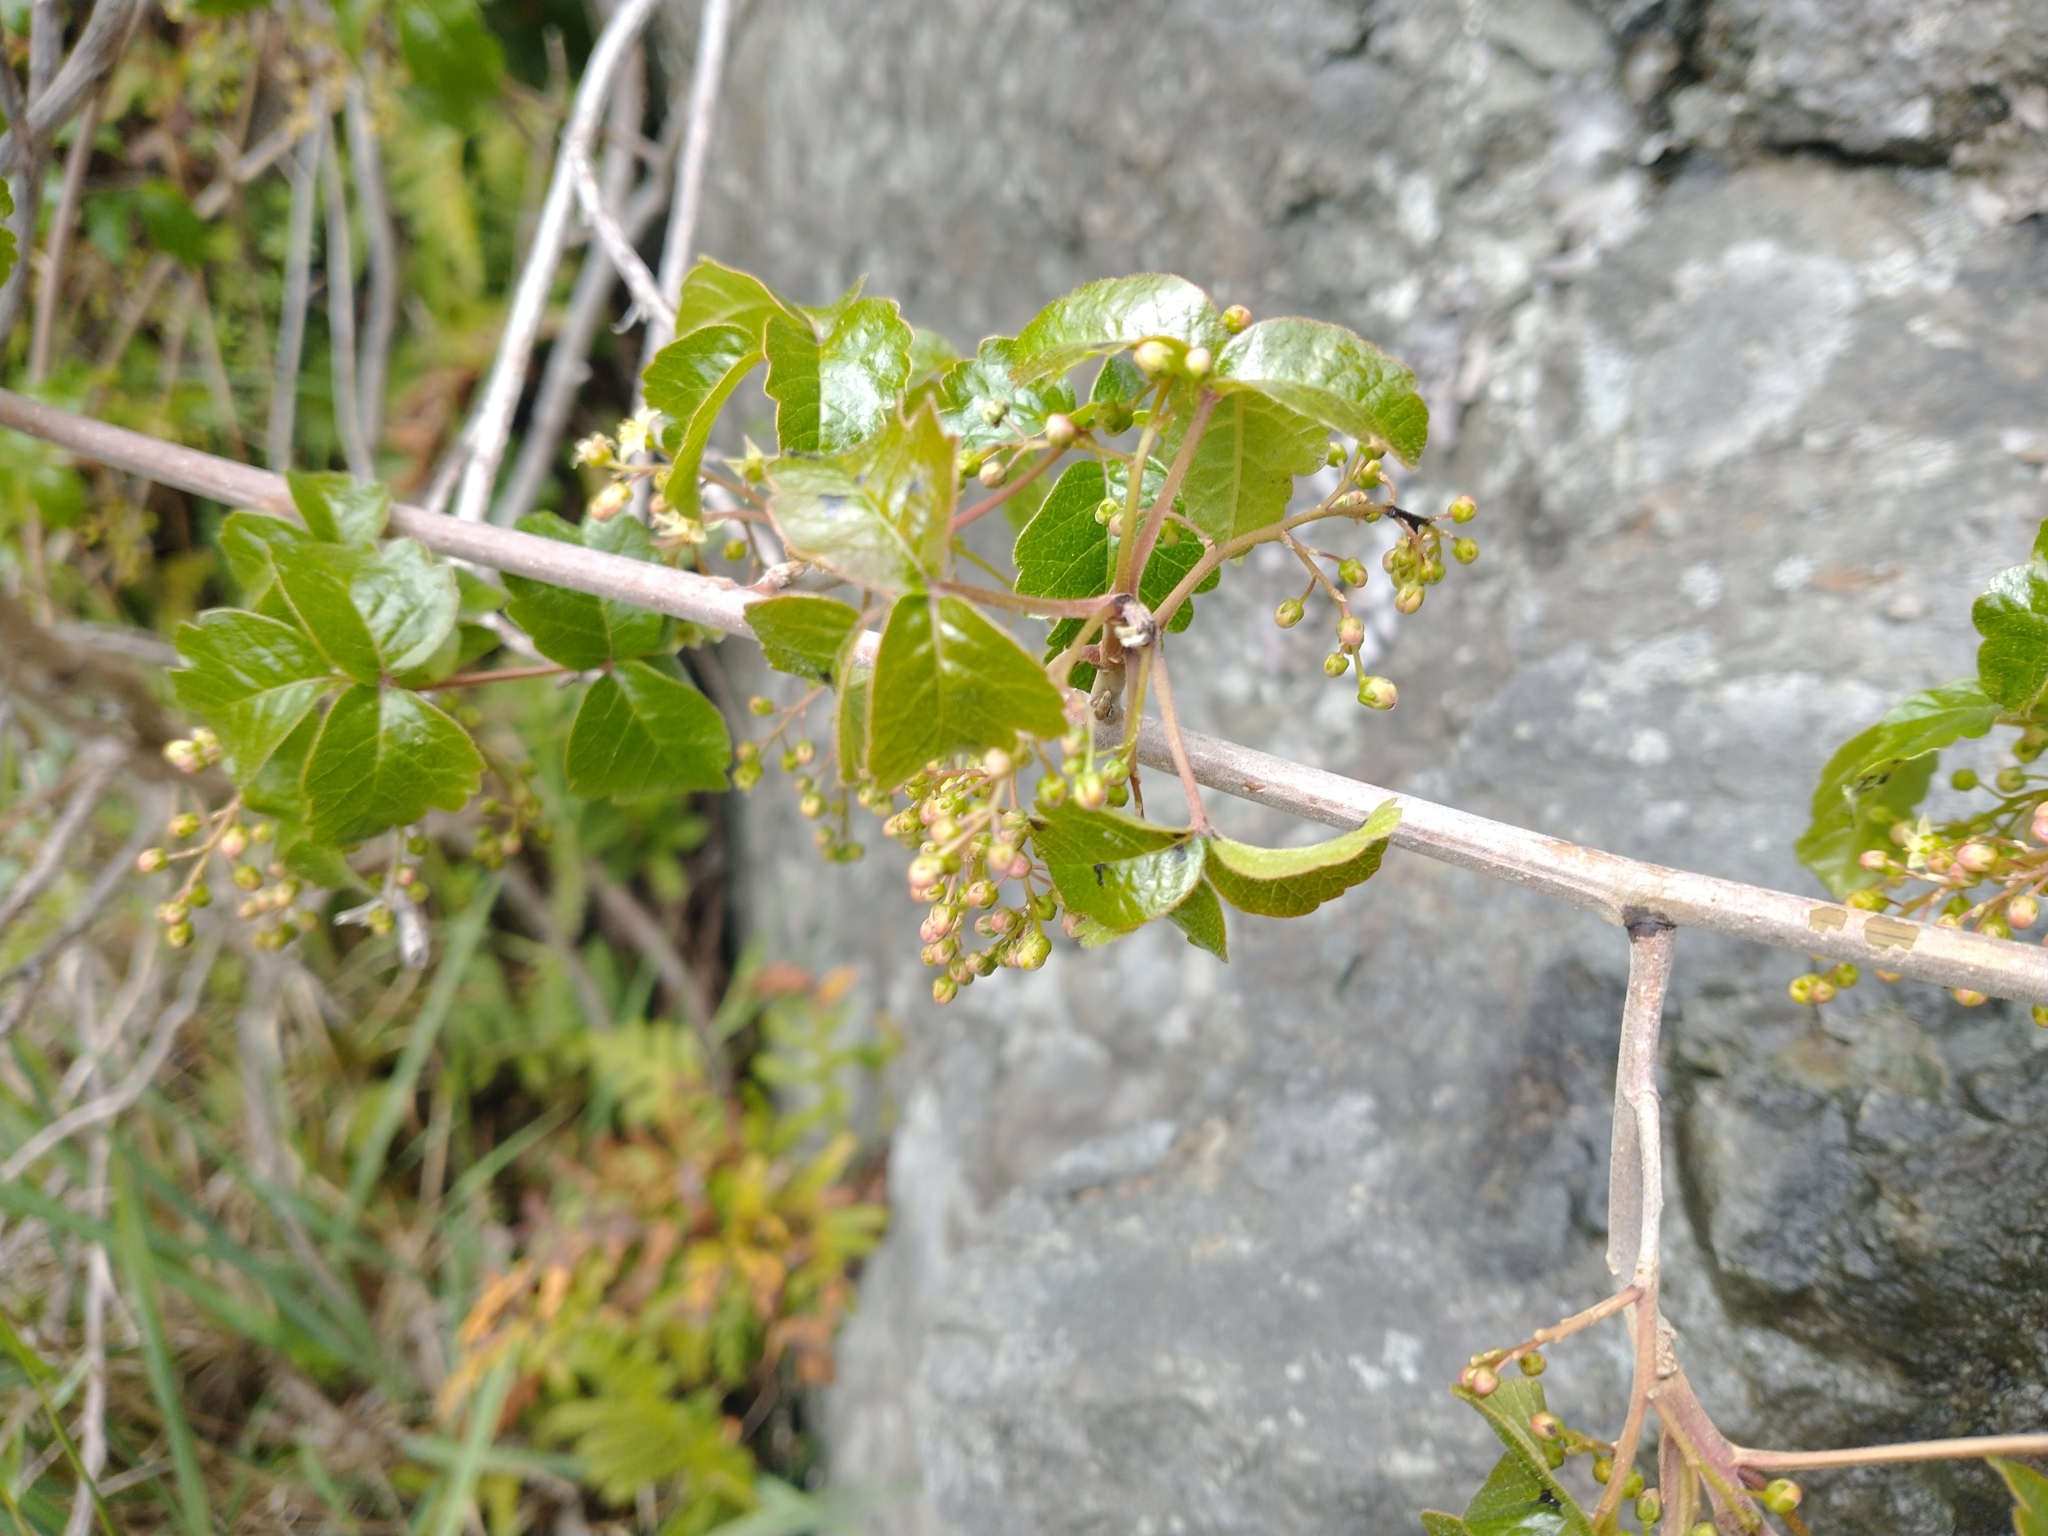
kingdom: Plantae
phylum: Tracheophyta
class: Magnoliopsida
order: Sapindales
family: Anacardiaceae
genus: Toxicodendron
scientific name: Toxicodendron diversilobum
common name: Pacific poison-oak
